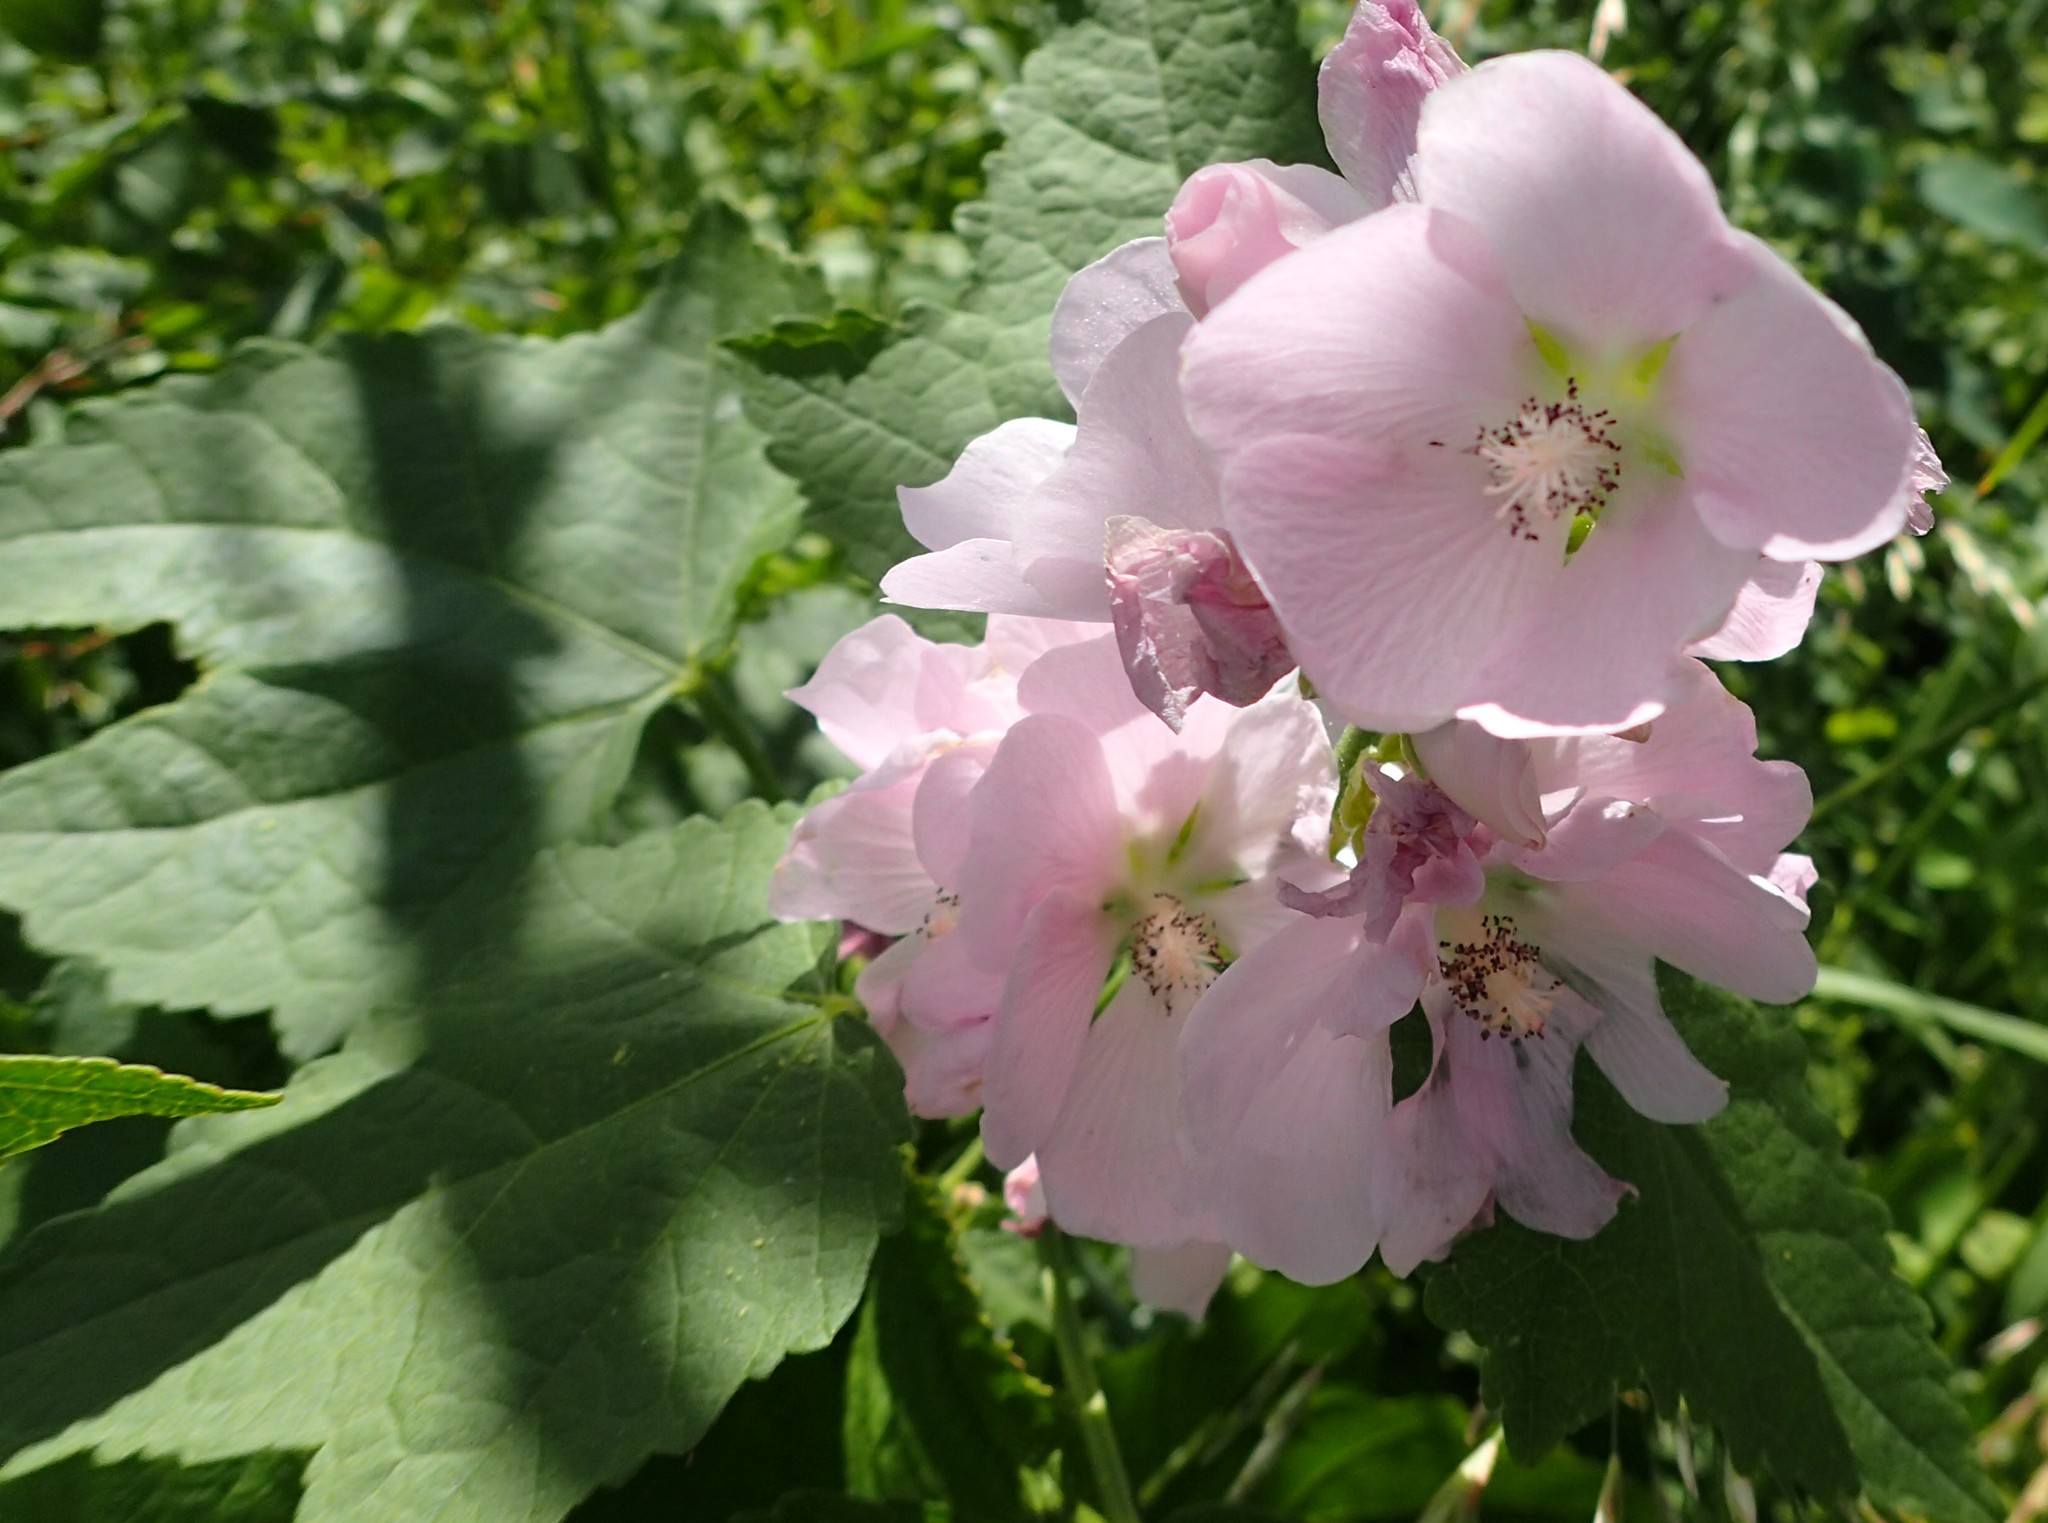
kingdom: Plantae
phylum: Tracheophyta
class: Magnoliopsida
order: Malvales
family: Malvaceae
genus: Iliamna
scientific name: Iliamna rivularis
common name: Wild hollyhock
